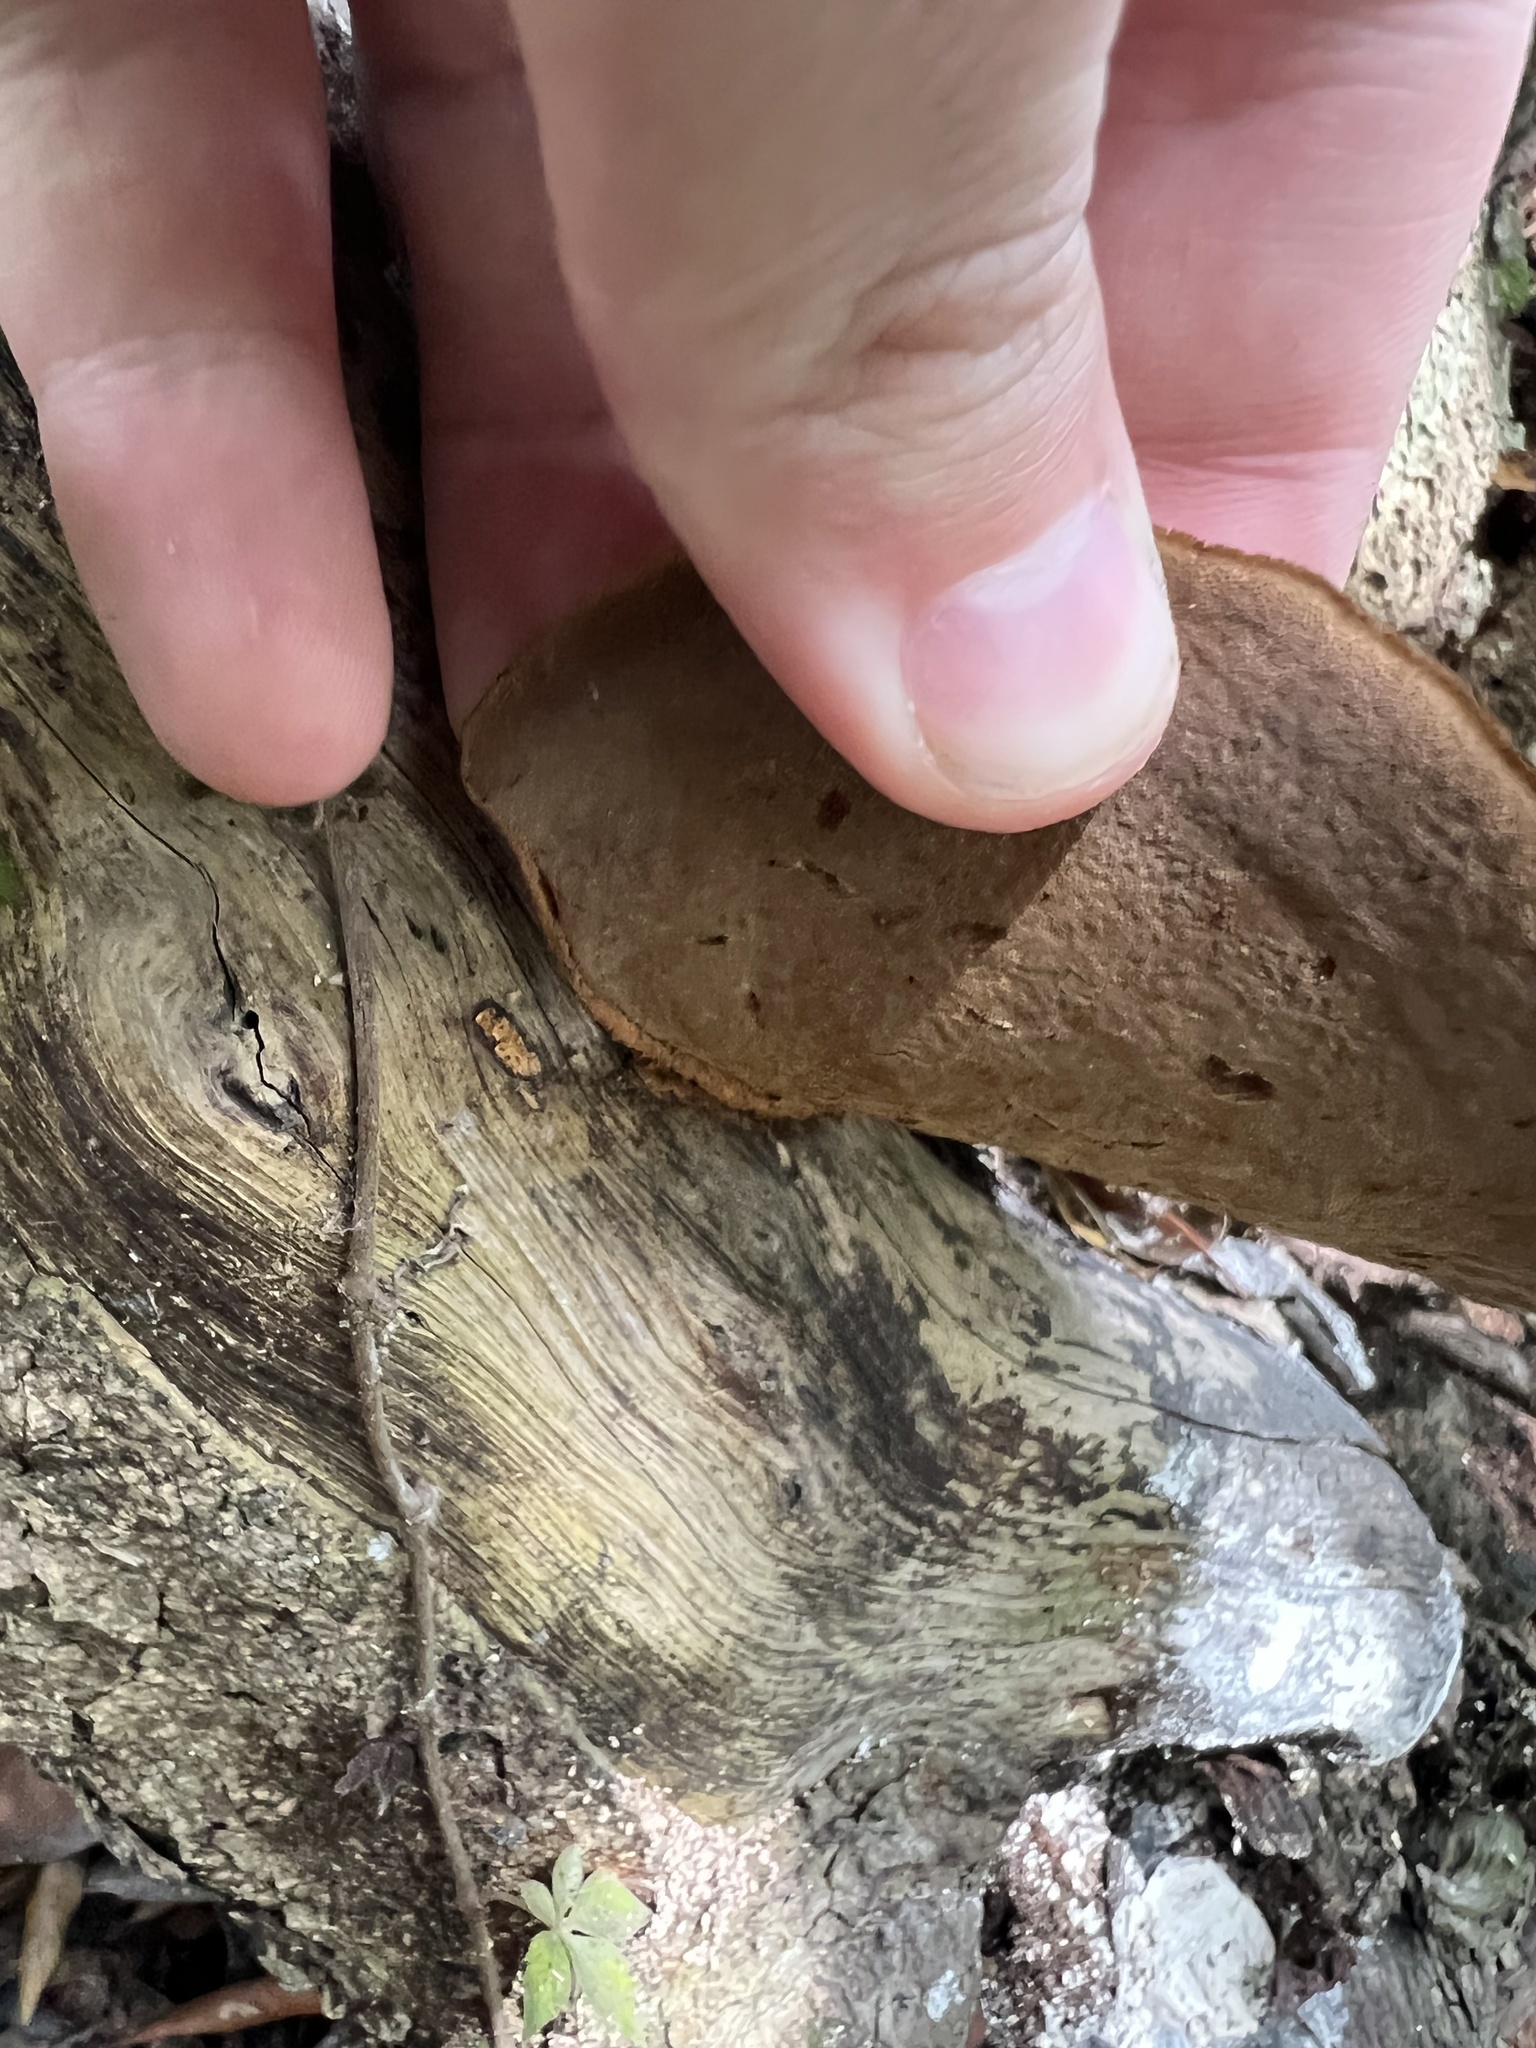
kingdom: Fungi
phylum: Basidiomycota
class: Agaricomycetes
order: Polyporales
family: Cerrenaceae
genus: Cerrena
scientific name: Cerrena hydnoides
